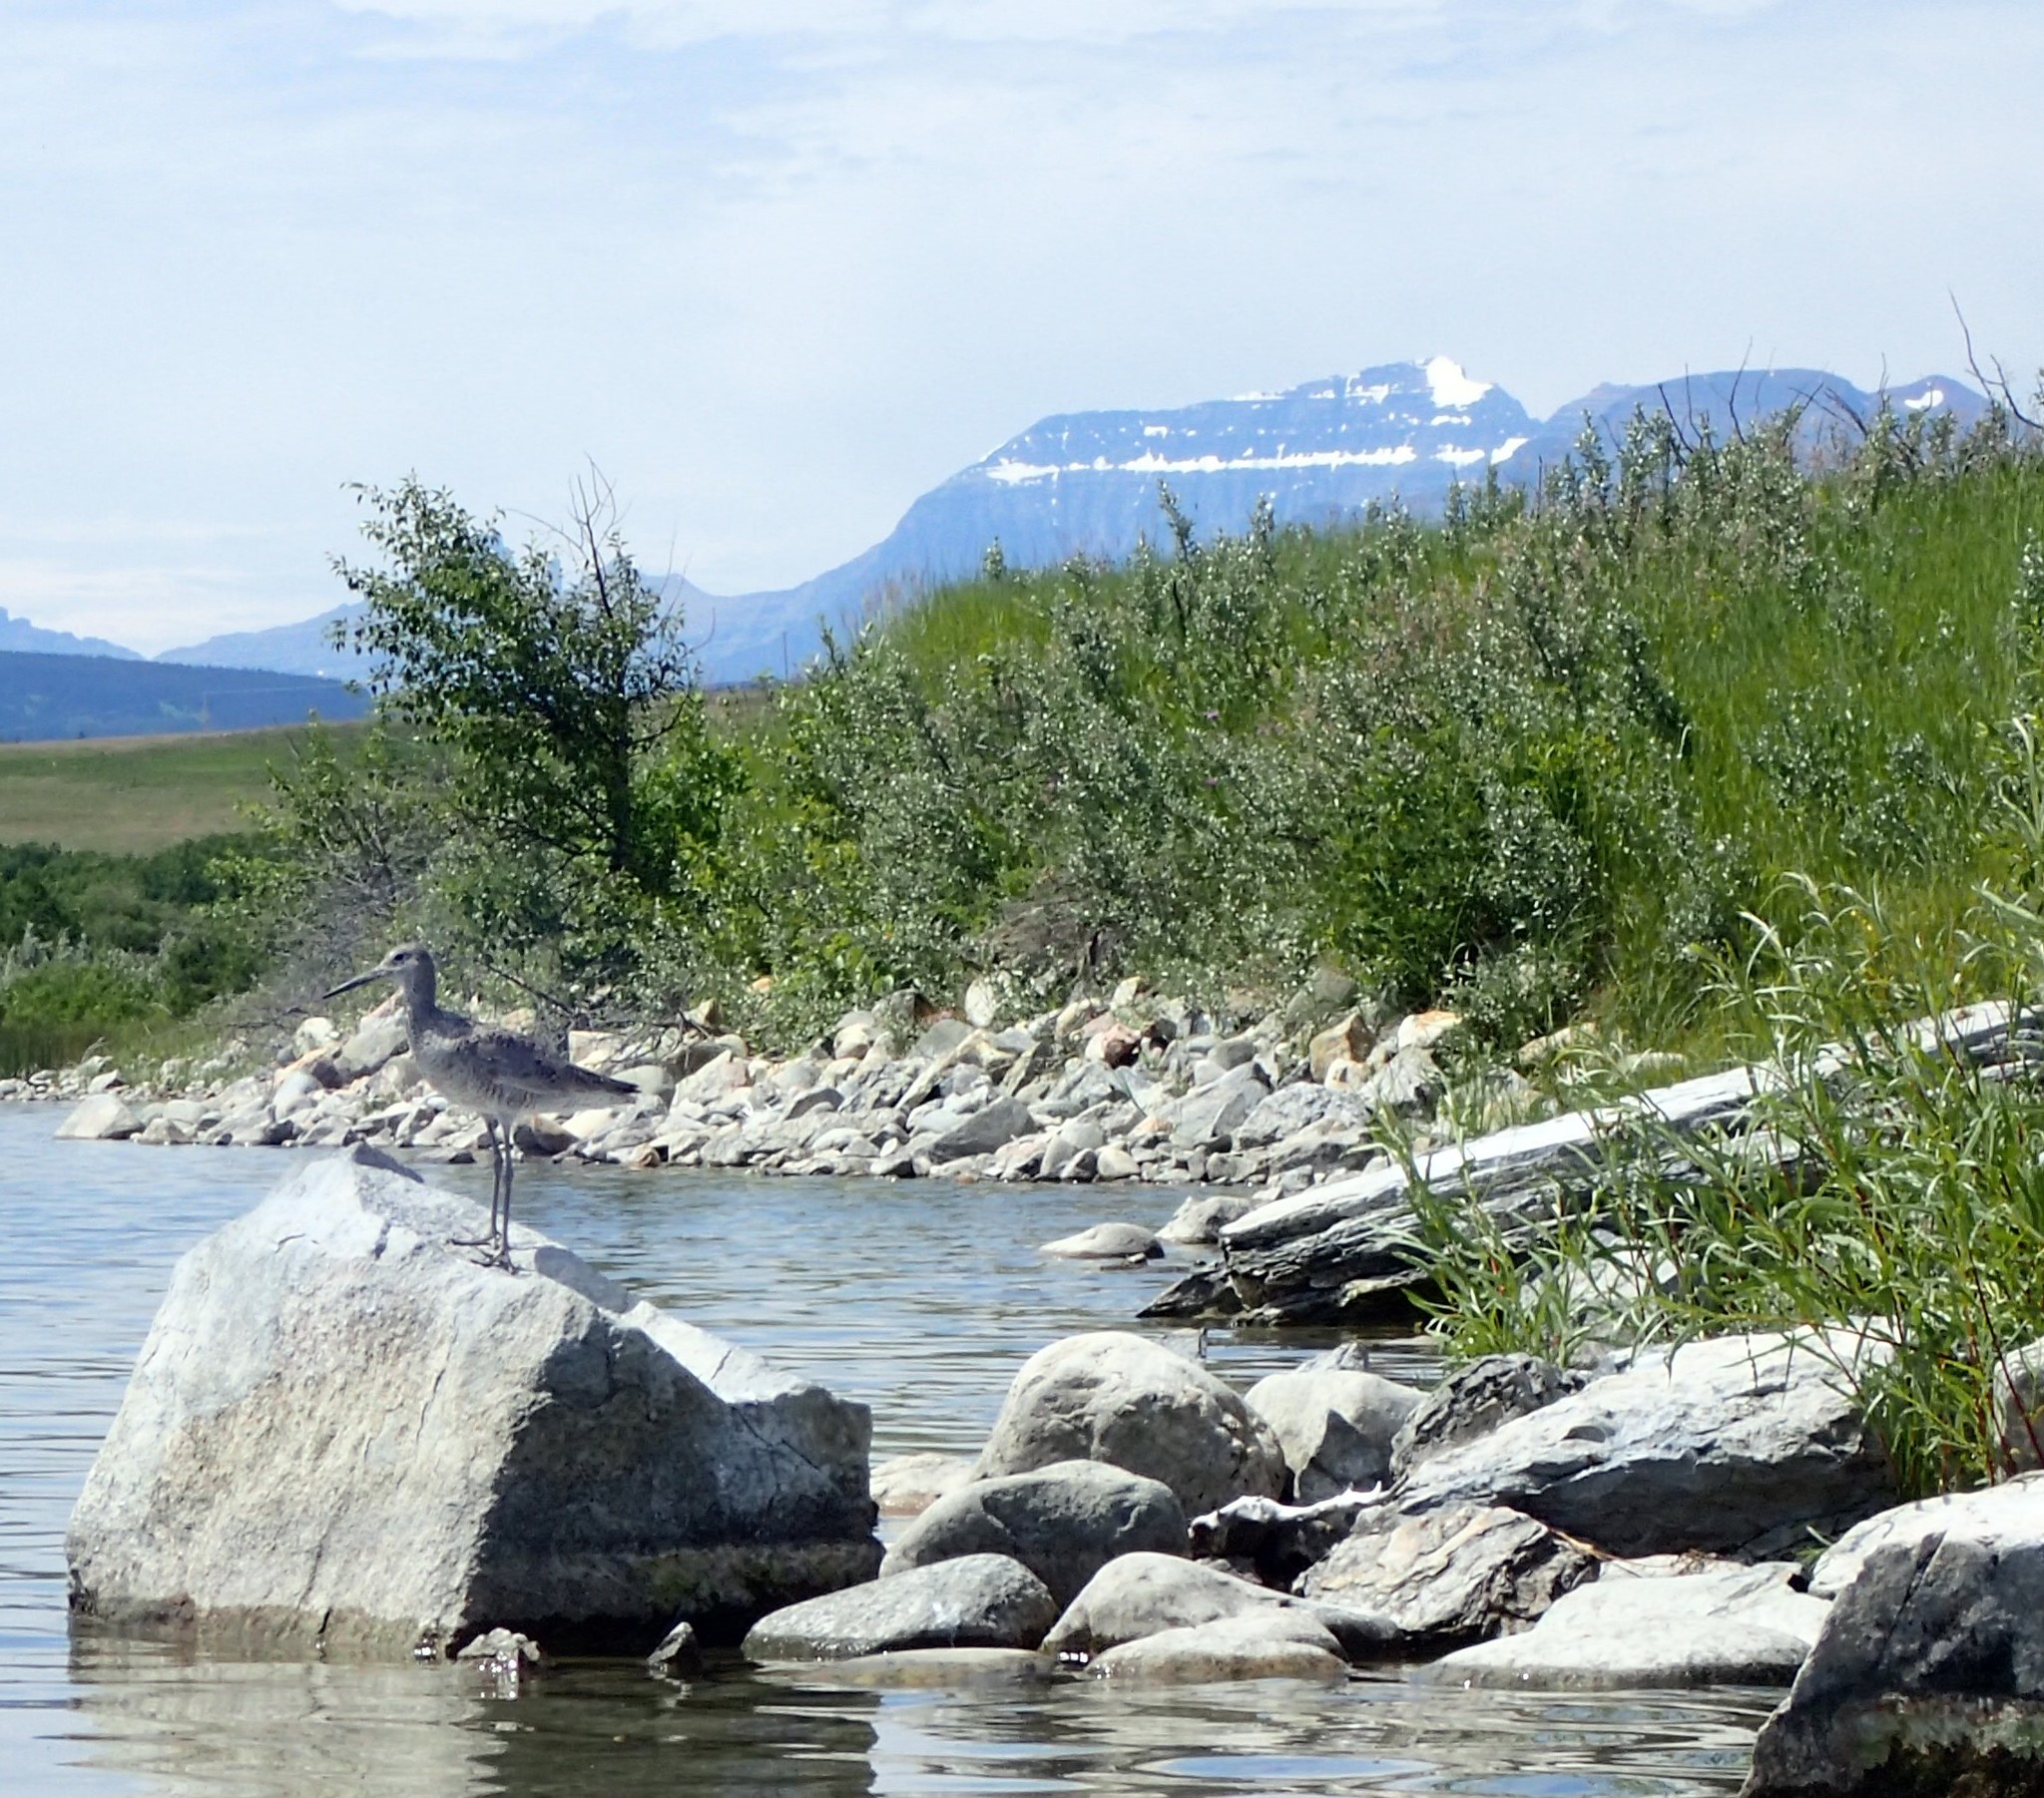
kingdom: Animalia
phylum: Chordata
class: Aves
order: Charadriiformes
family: Scolopacidae
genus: Tringa
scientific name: Tringa semipalmata
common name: Willet
